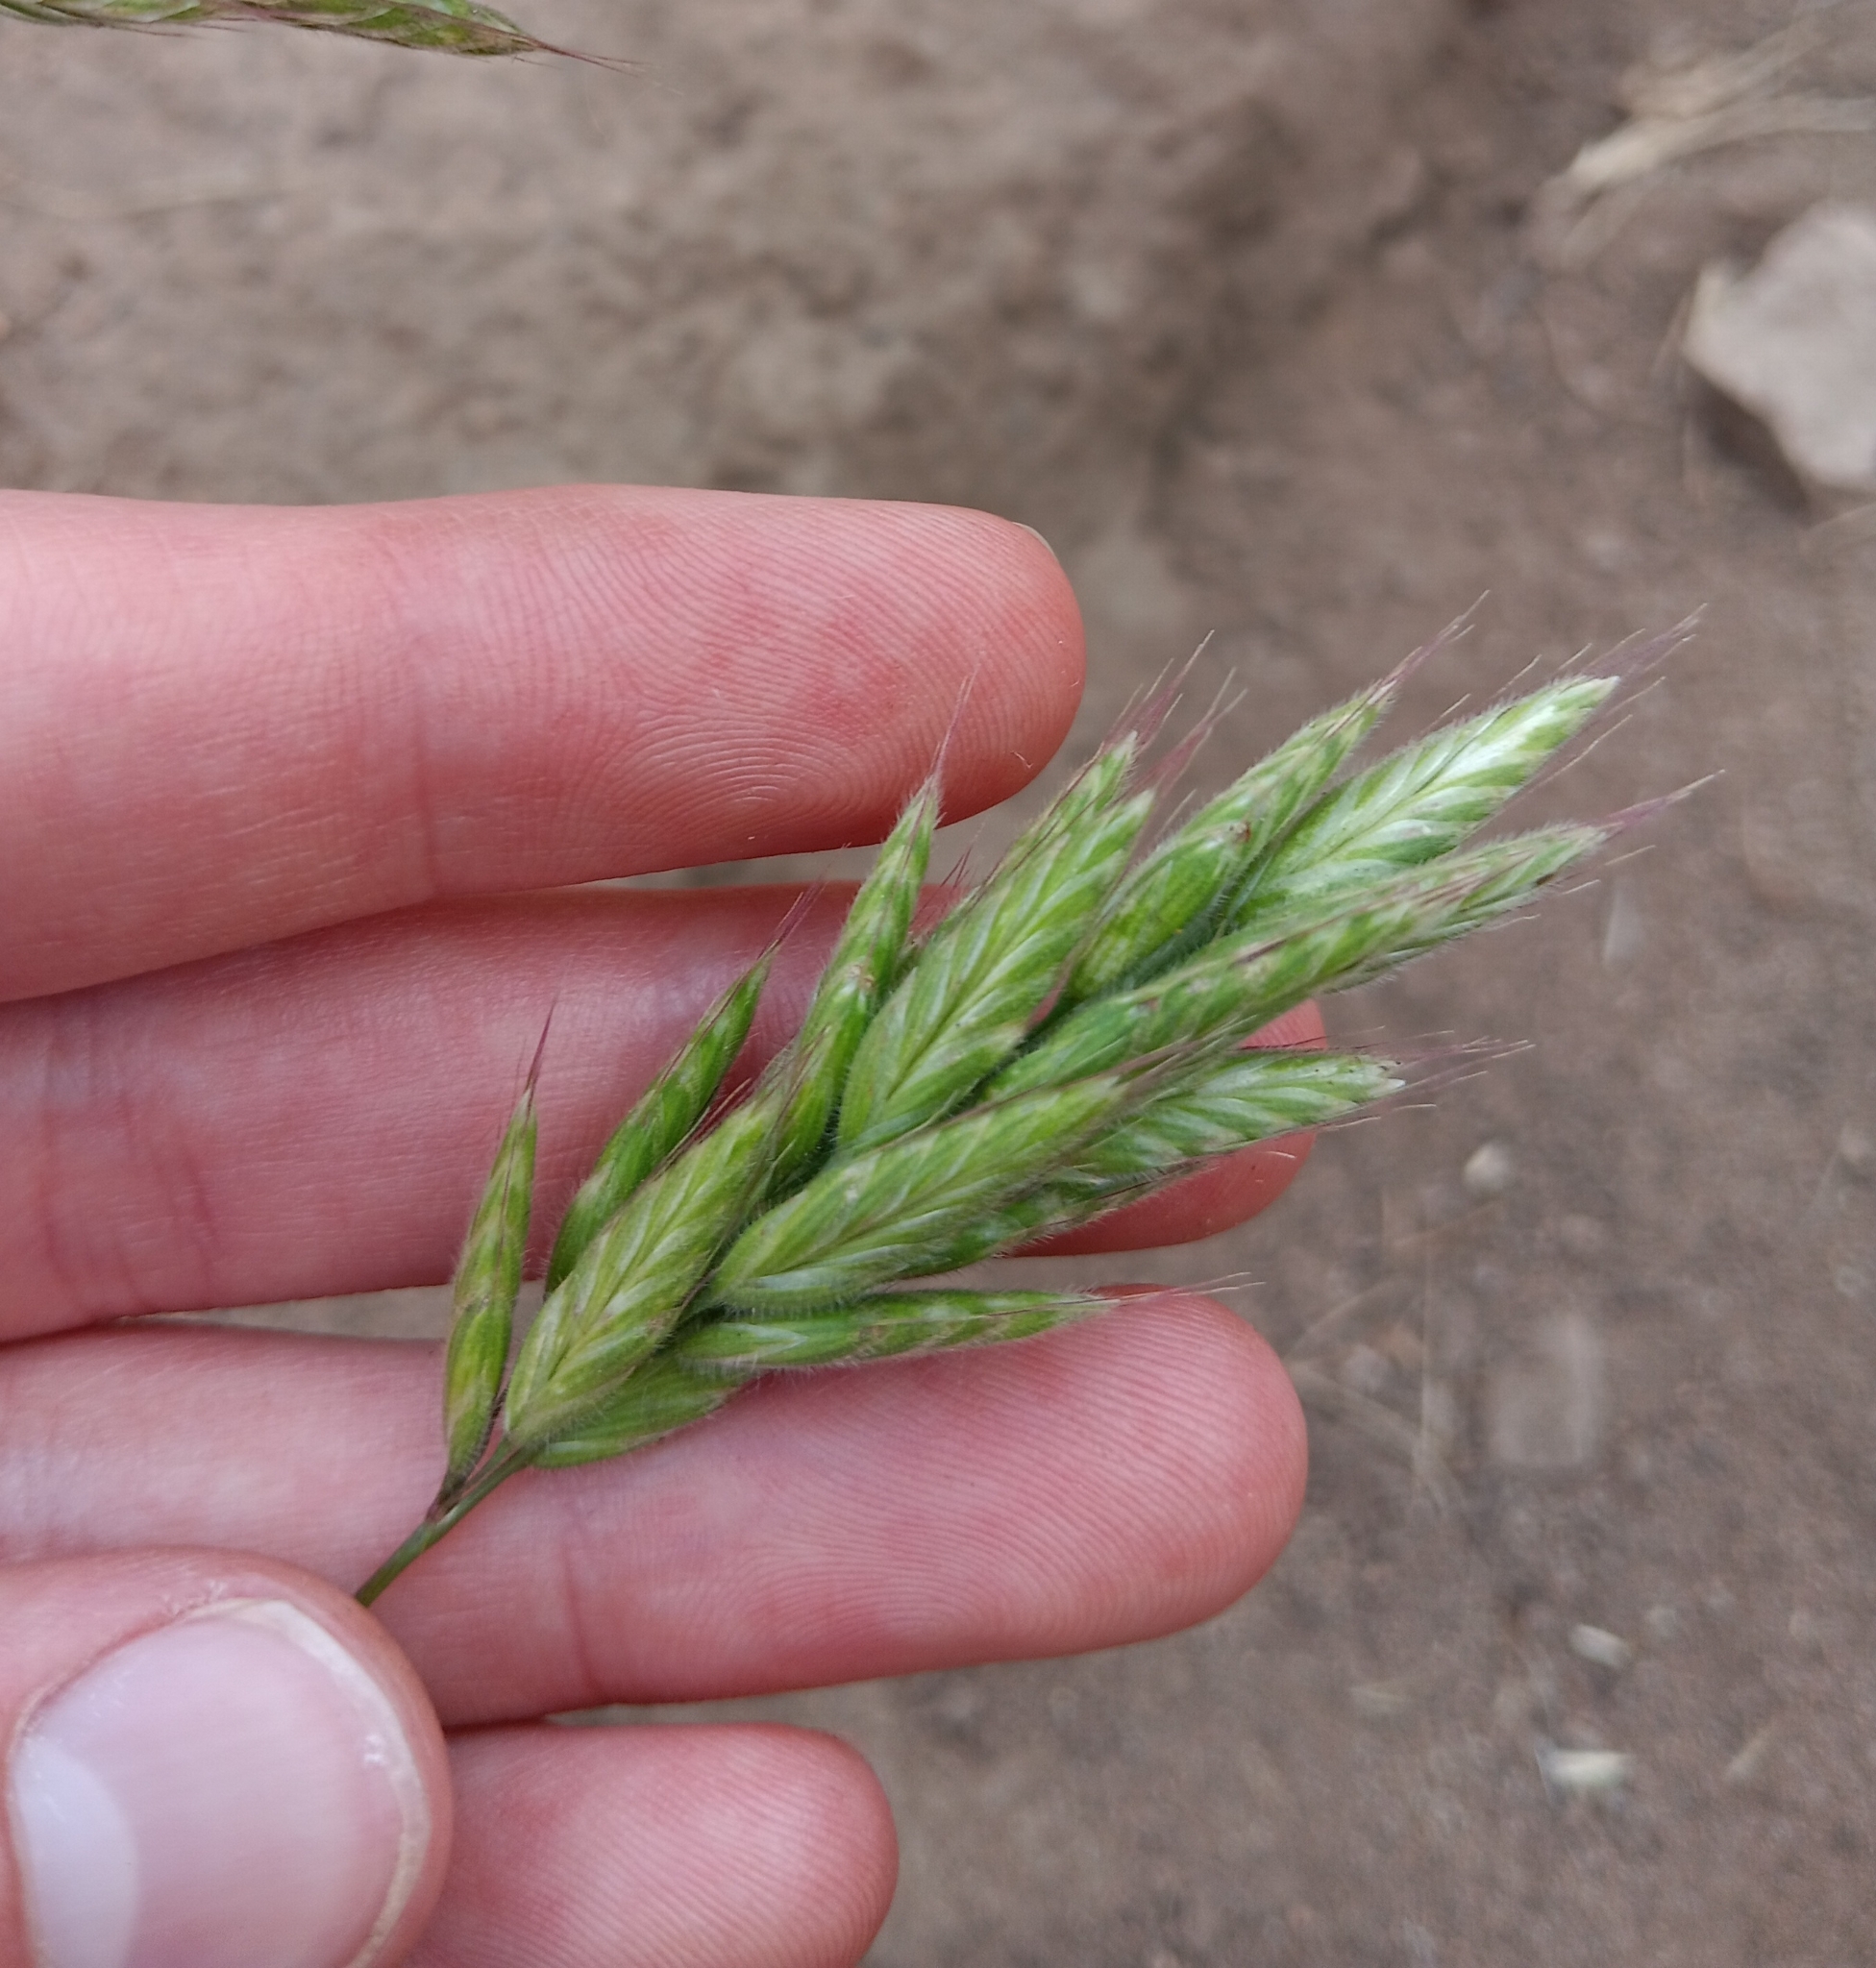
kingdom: Plantae
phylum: Tracheophyta
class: Liliopsida
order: Poales
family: Poaceae
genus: Bromus
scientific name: Bromus hordeaceus
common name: Soft brome
